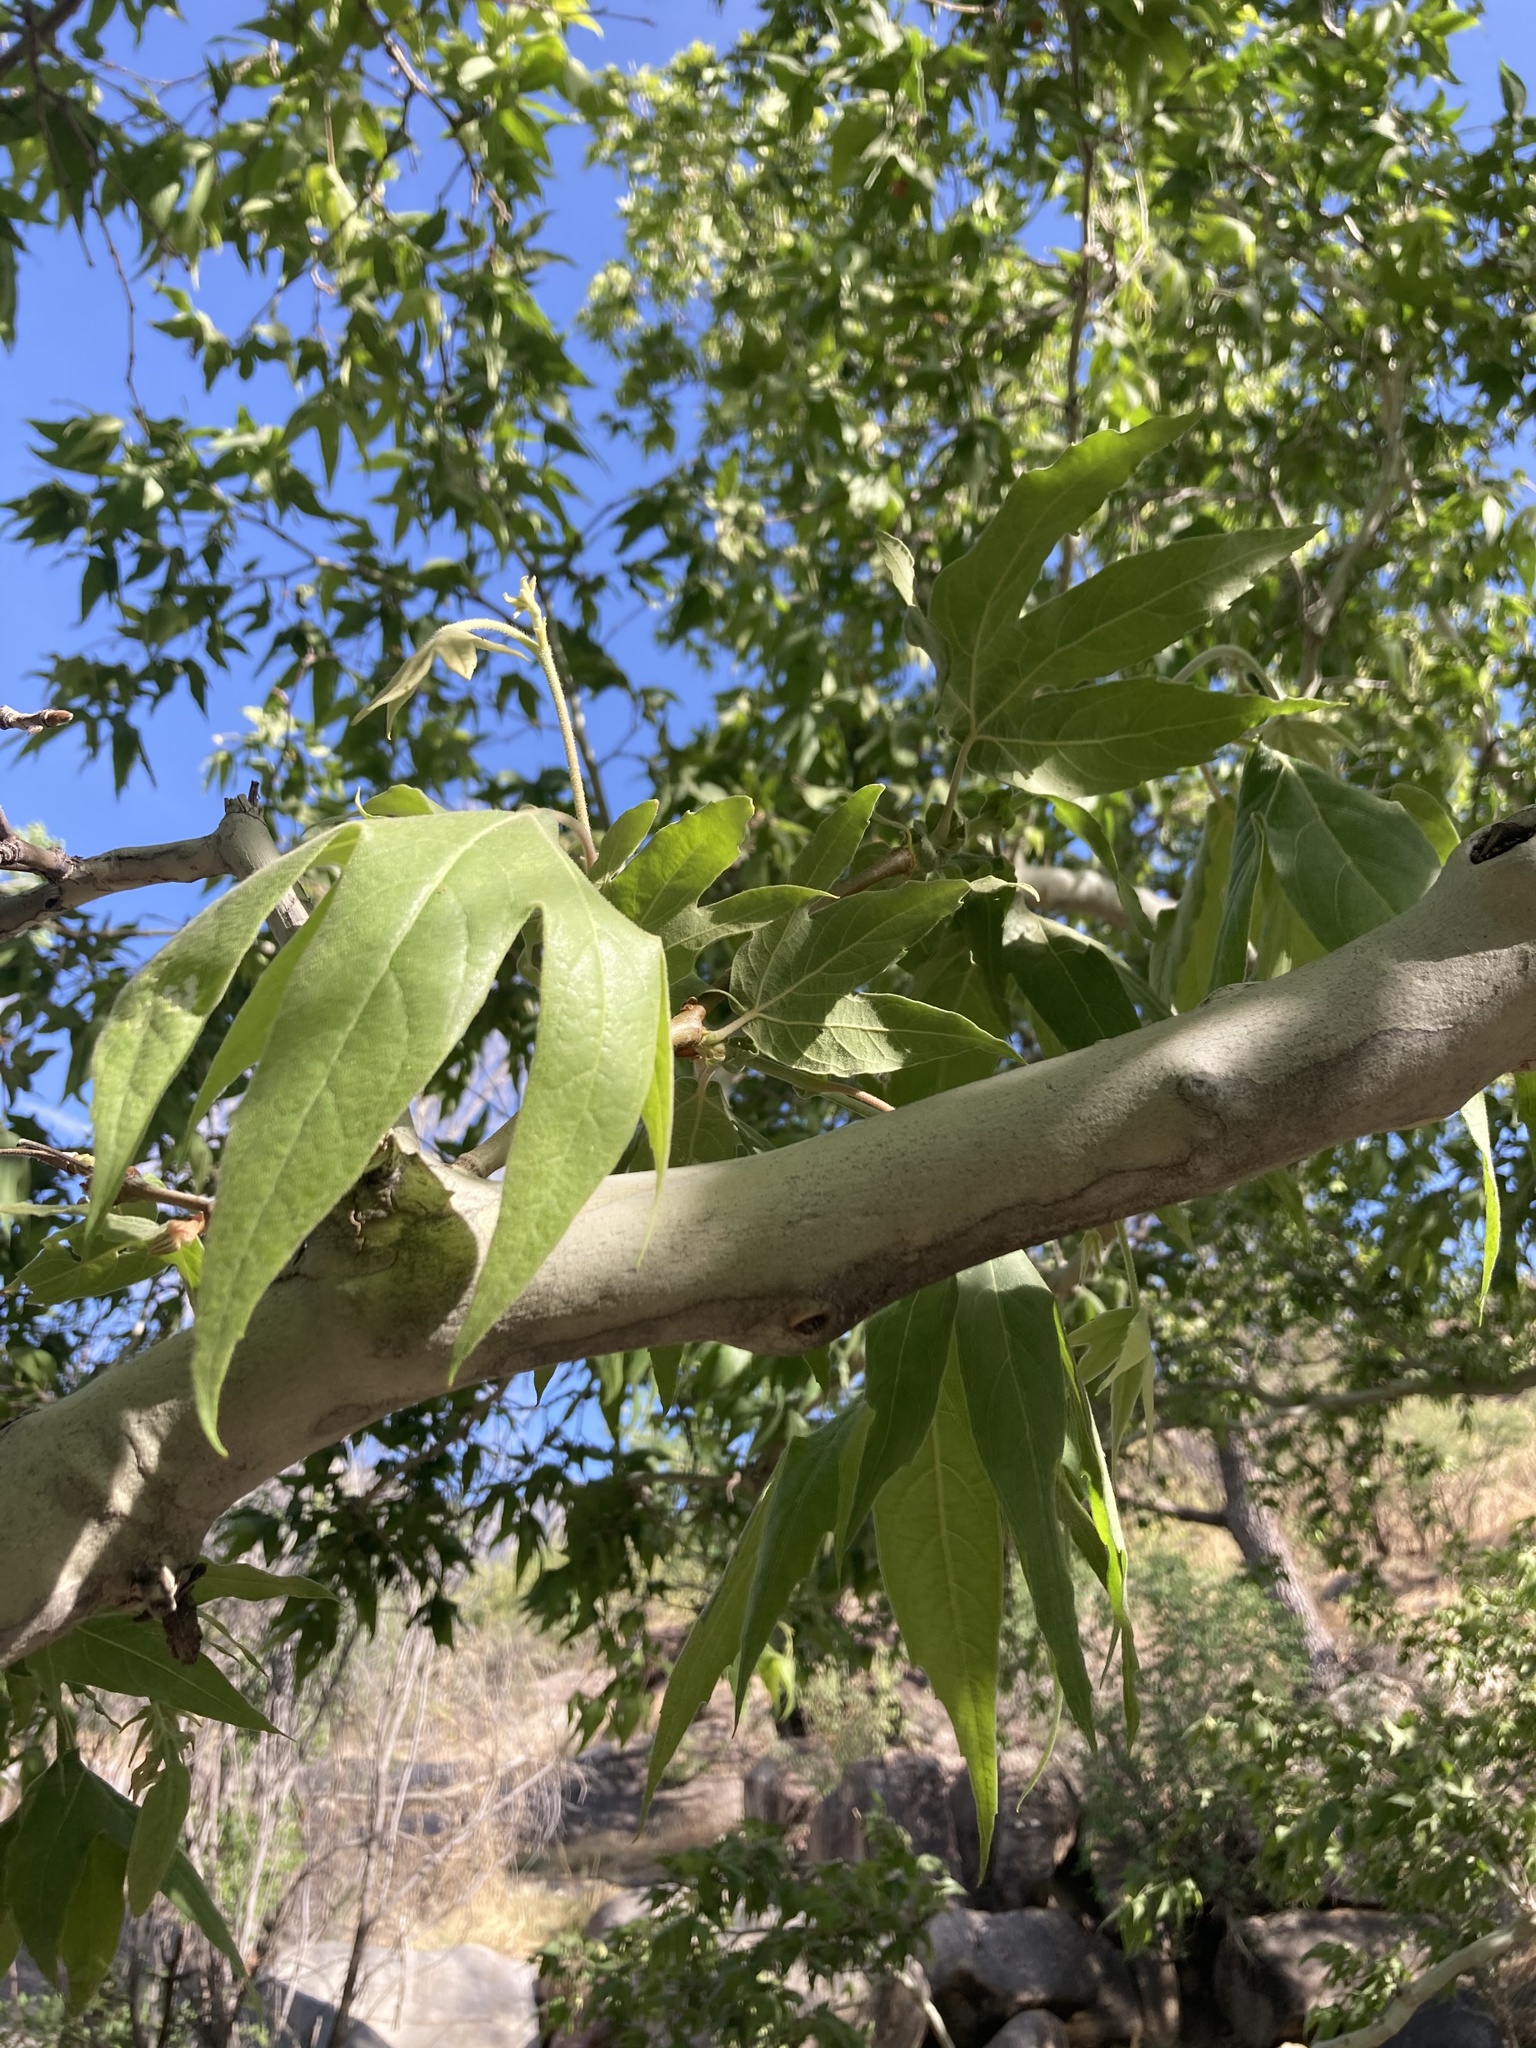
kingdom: Plantae
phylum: Tracheophyta
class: Magnoliopsida
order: Proteales
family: Platanaceae
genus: Platanus
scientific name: Platanus wrightii
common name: Arizona sycamore
